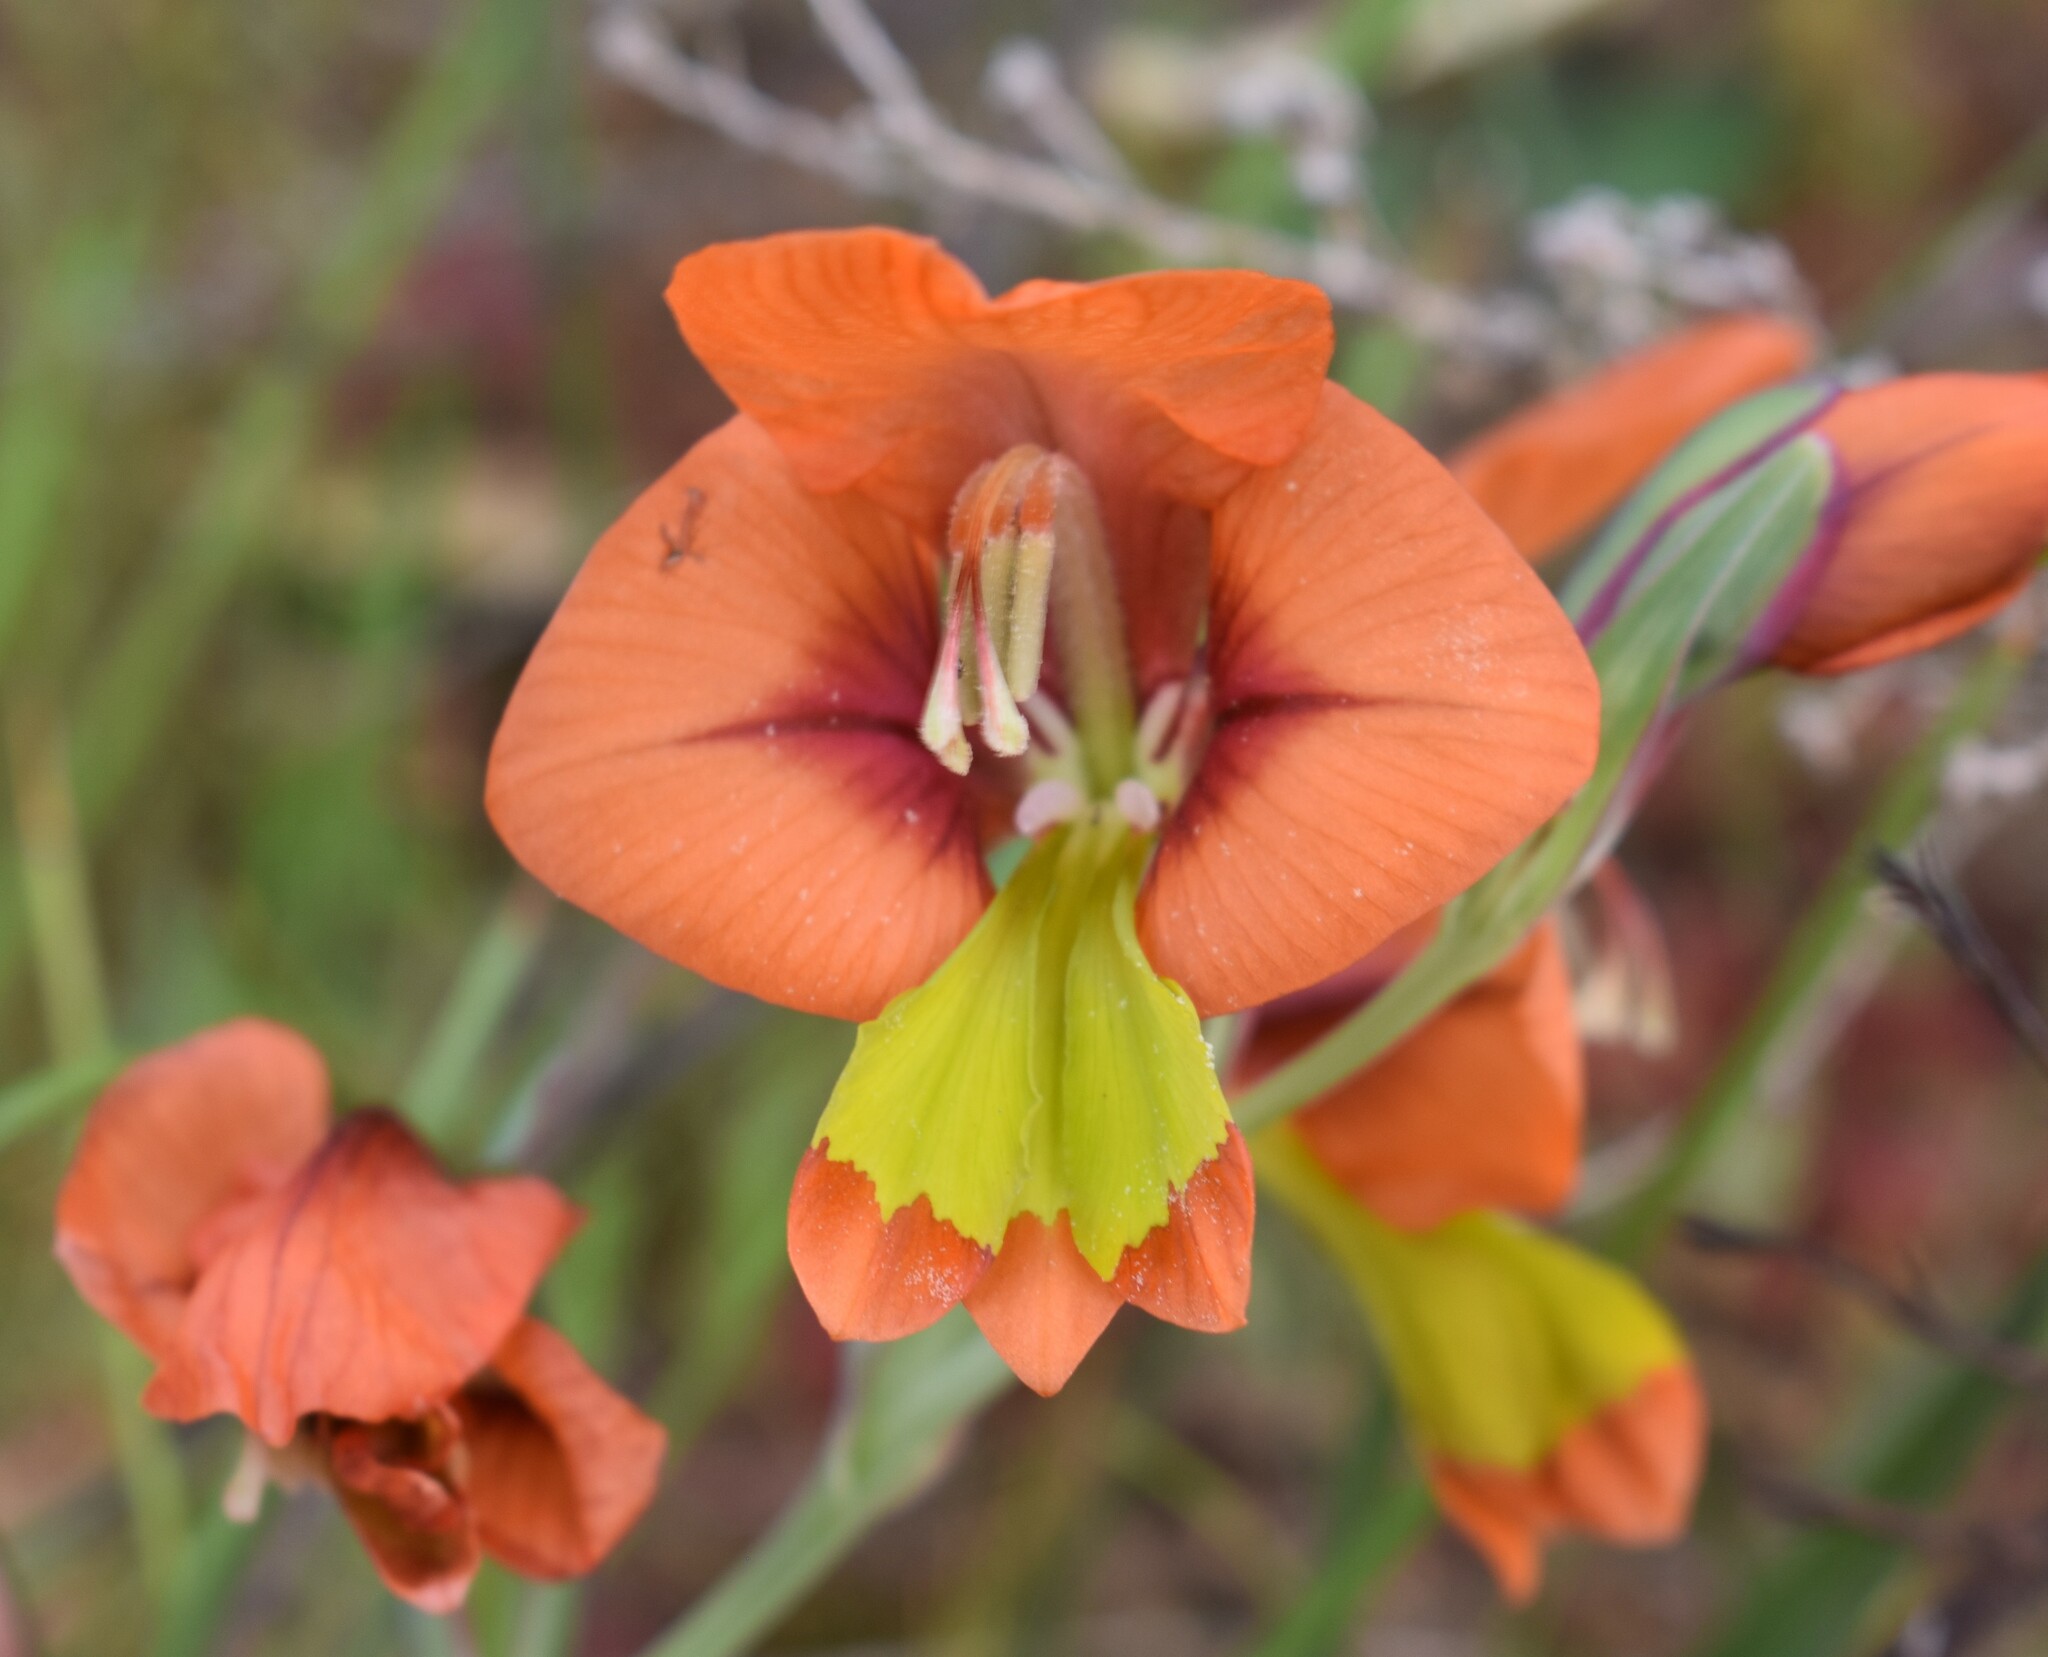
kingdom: Plantae
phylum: Tracheophyta
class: Liliopsida
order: Asparagales
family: Iridaceae
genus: Gladiolus
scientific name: Gladiolus alatus
